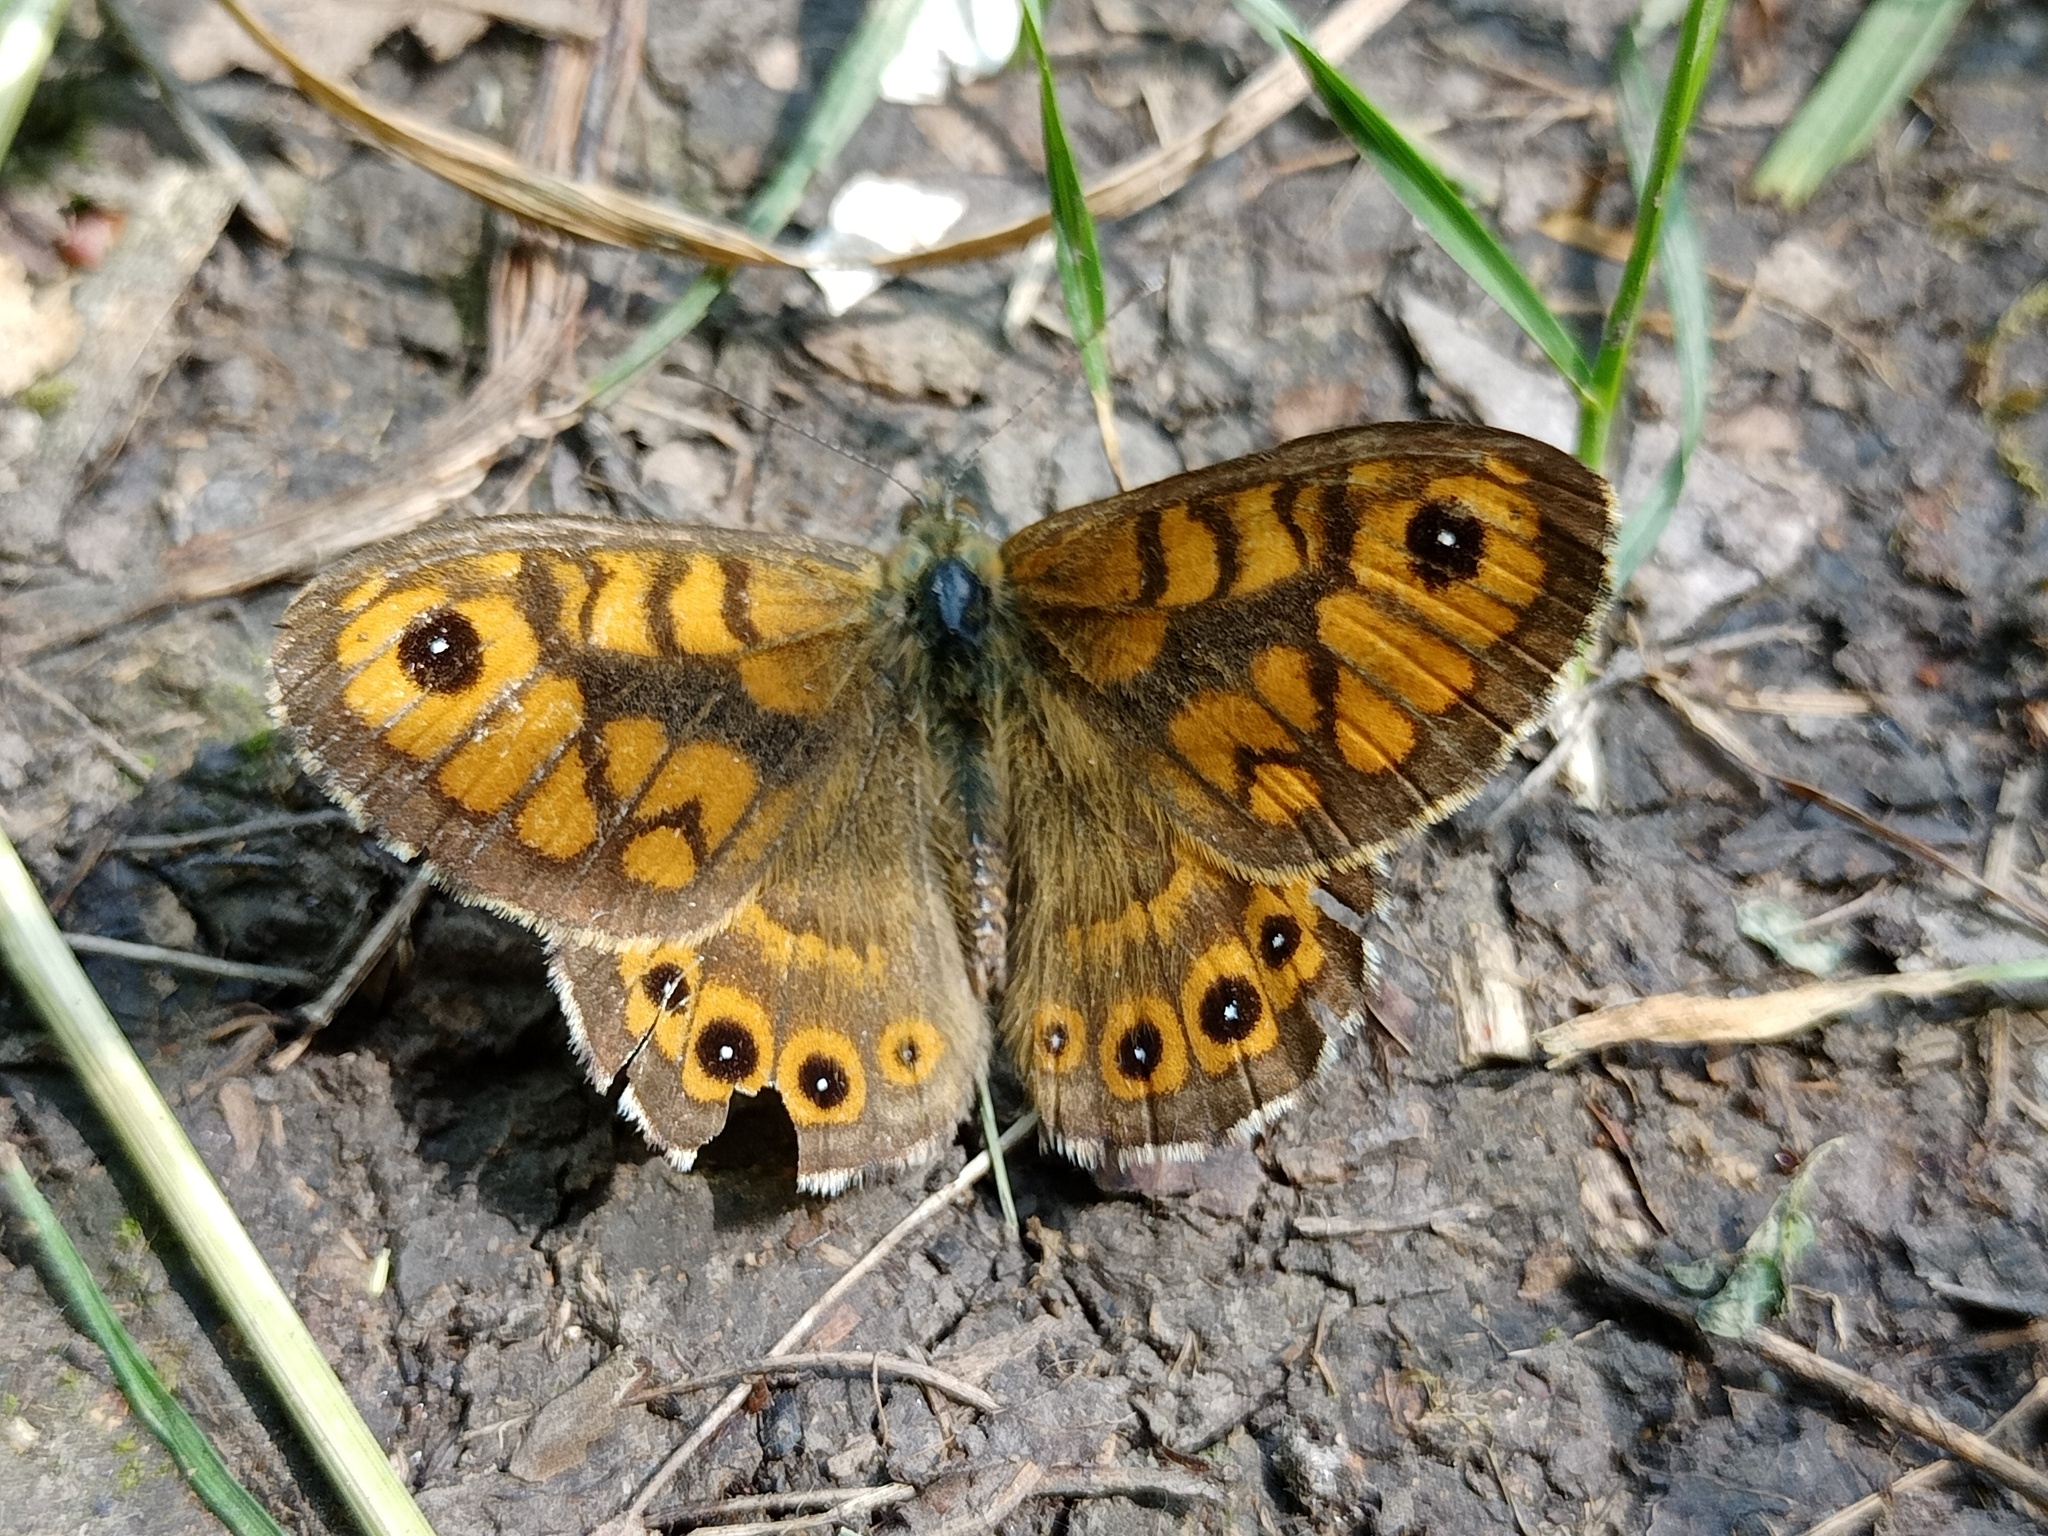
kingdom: Animalia
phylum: Arthropoda
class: Insecta
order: Lepidoptera
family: Nymphalidae
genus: Pararge
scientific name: Pararge Lasiommata megera
